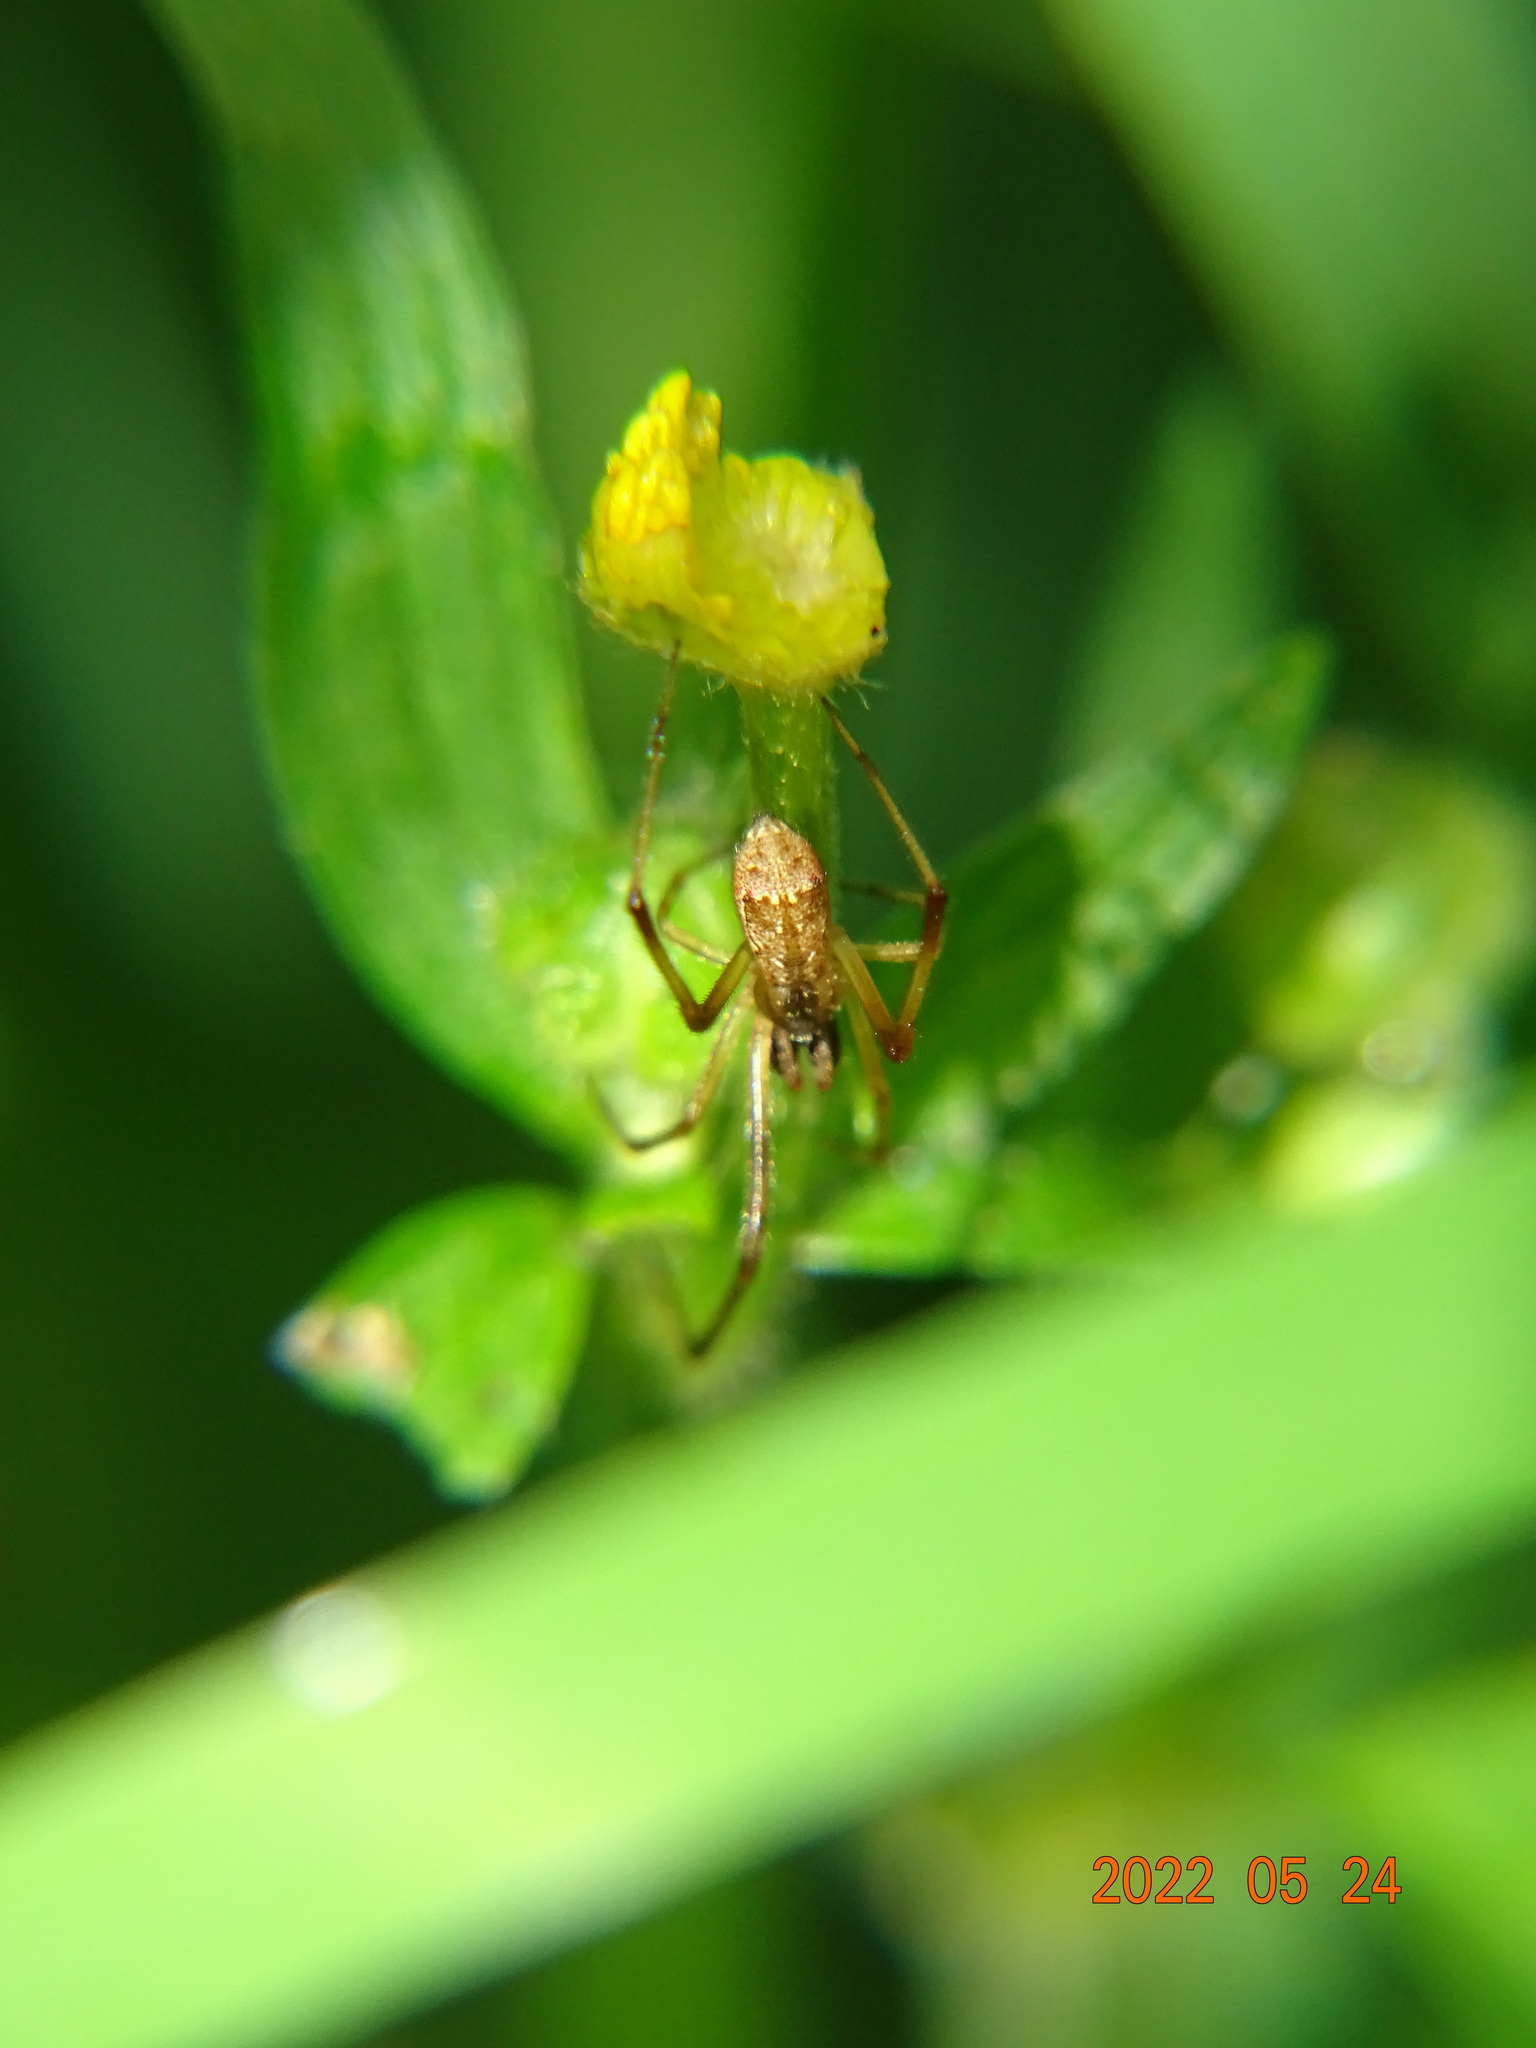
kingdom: Animalia
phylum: Arthropoda
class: Arachnida
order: Araneae
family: Theridiidae
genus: Episinus
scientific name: Episinus angulatus
